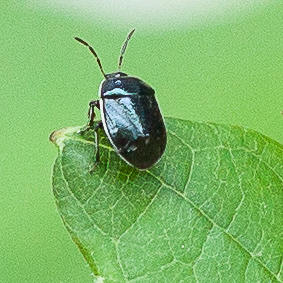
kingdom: Animalia
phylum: Arthropoda
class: Insecta
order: Hemiptera
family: Cydnidae
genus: Sehirus
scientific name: Sehirus cinctus
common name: White-margined burrower bug
